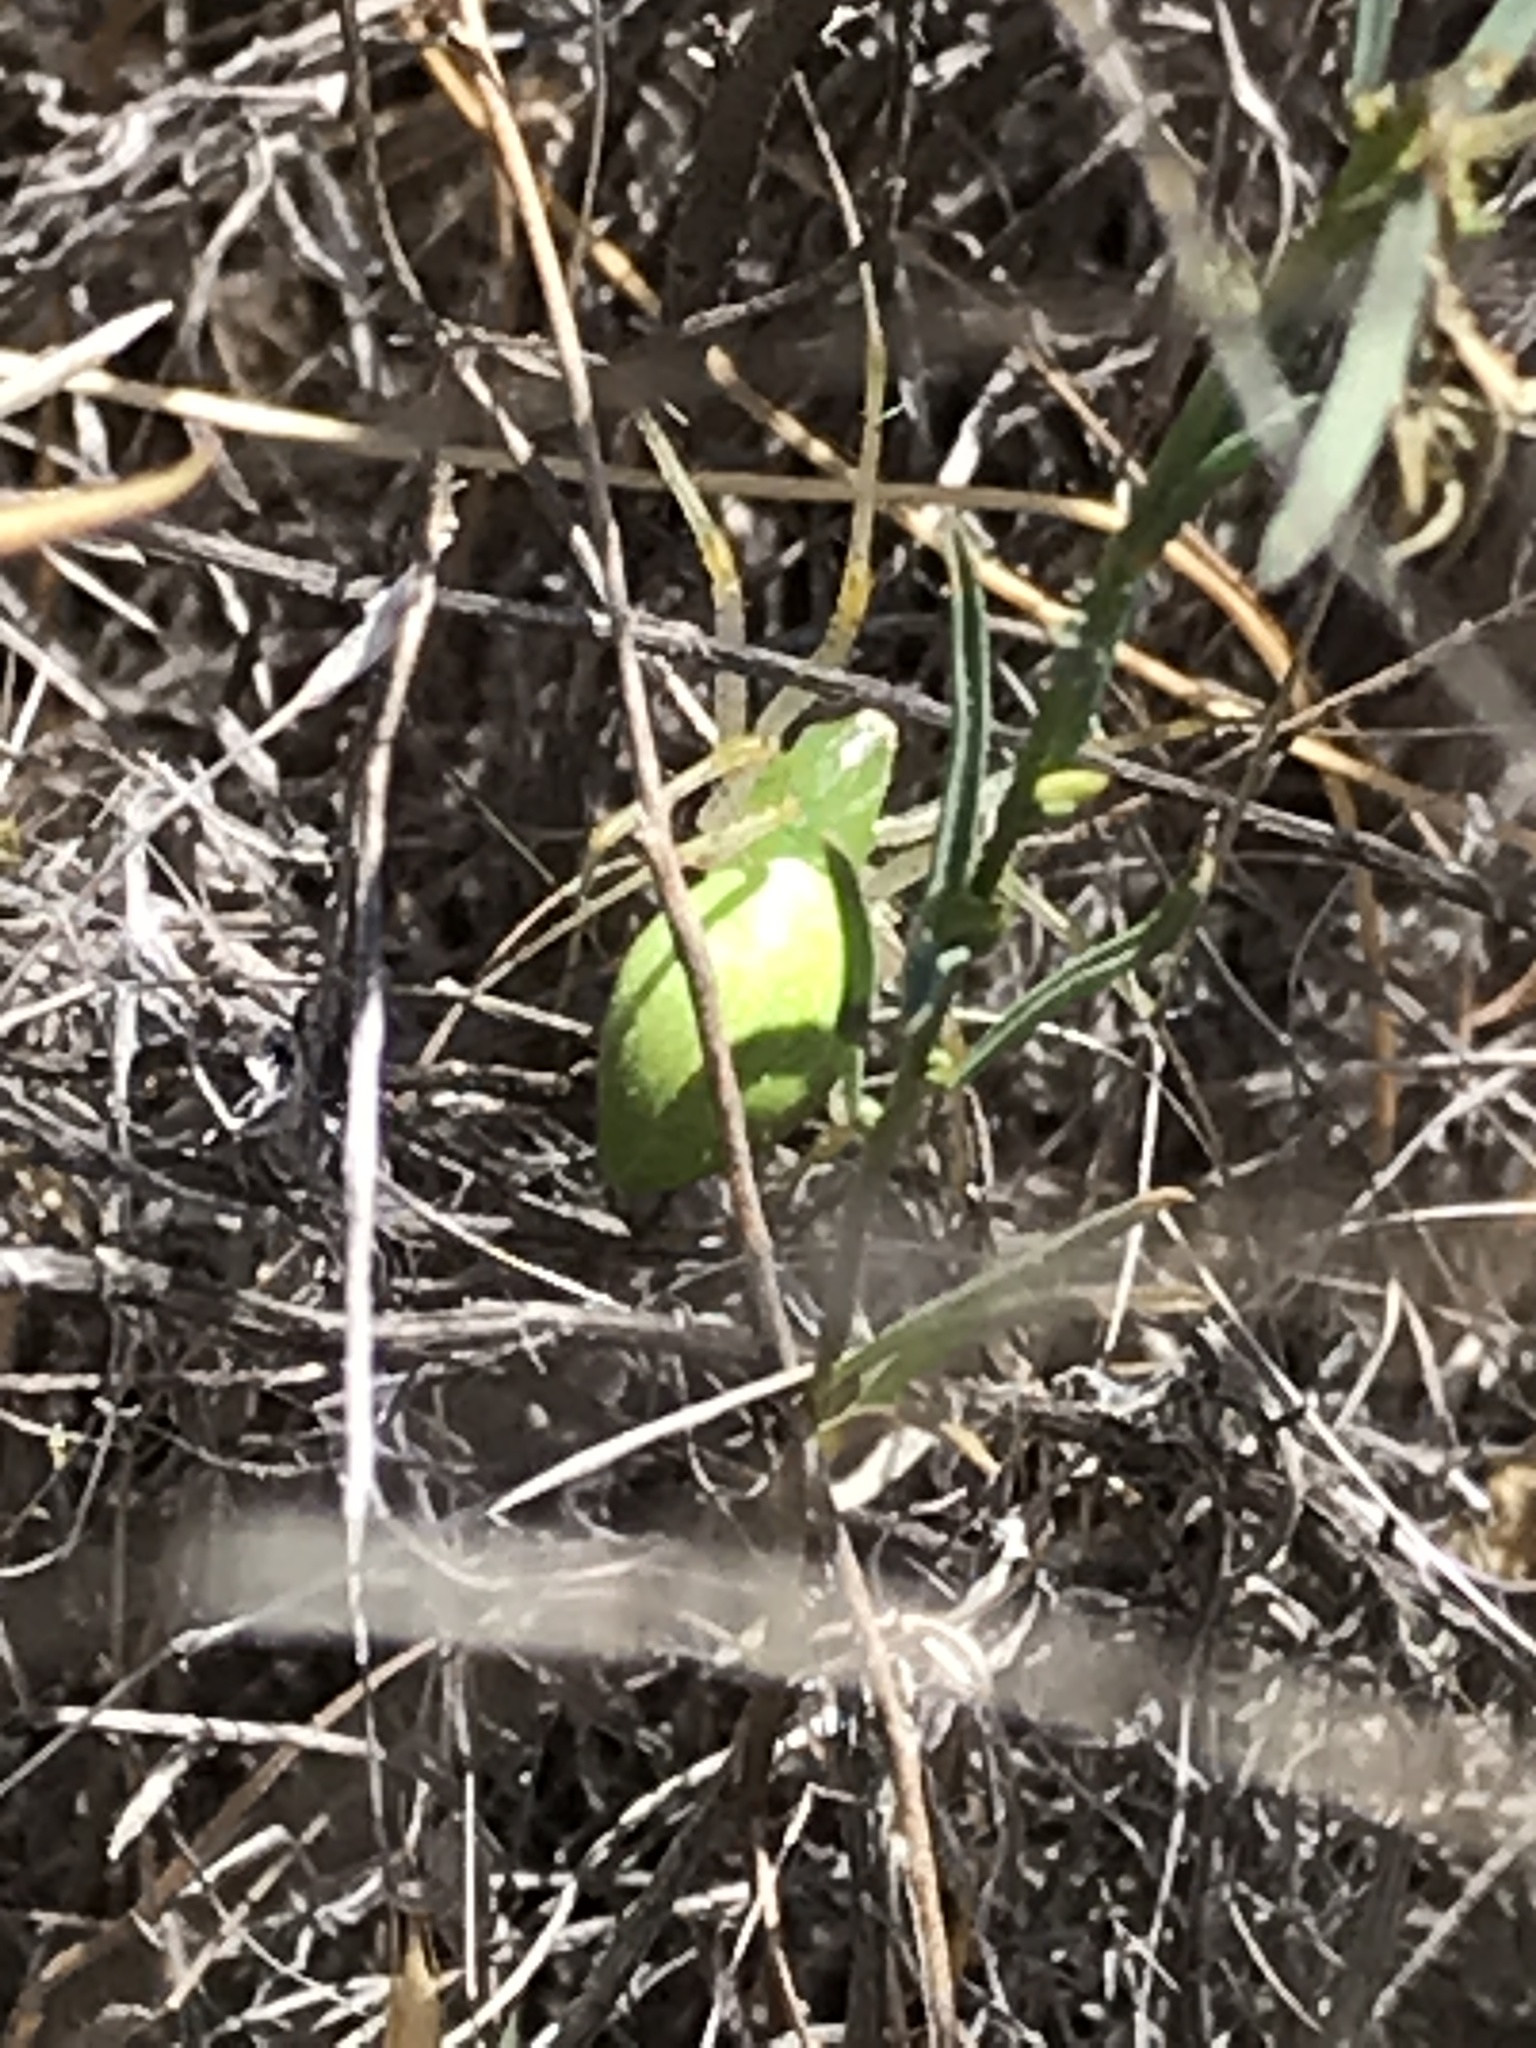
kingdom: Animalia
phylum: Arthropoda
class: Arachnida
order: Araneae
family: Oxyopidae
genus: Peucetia
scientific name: Peucetia longipalpis
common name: Lynx spiders
